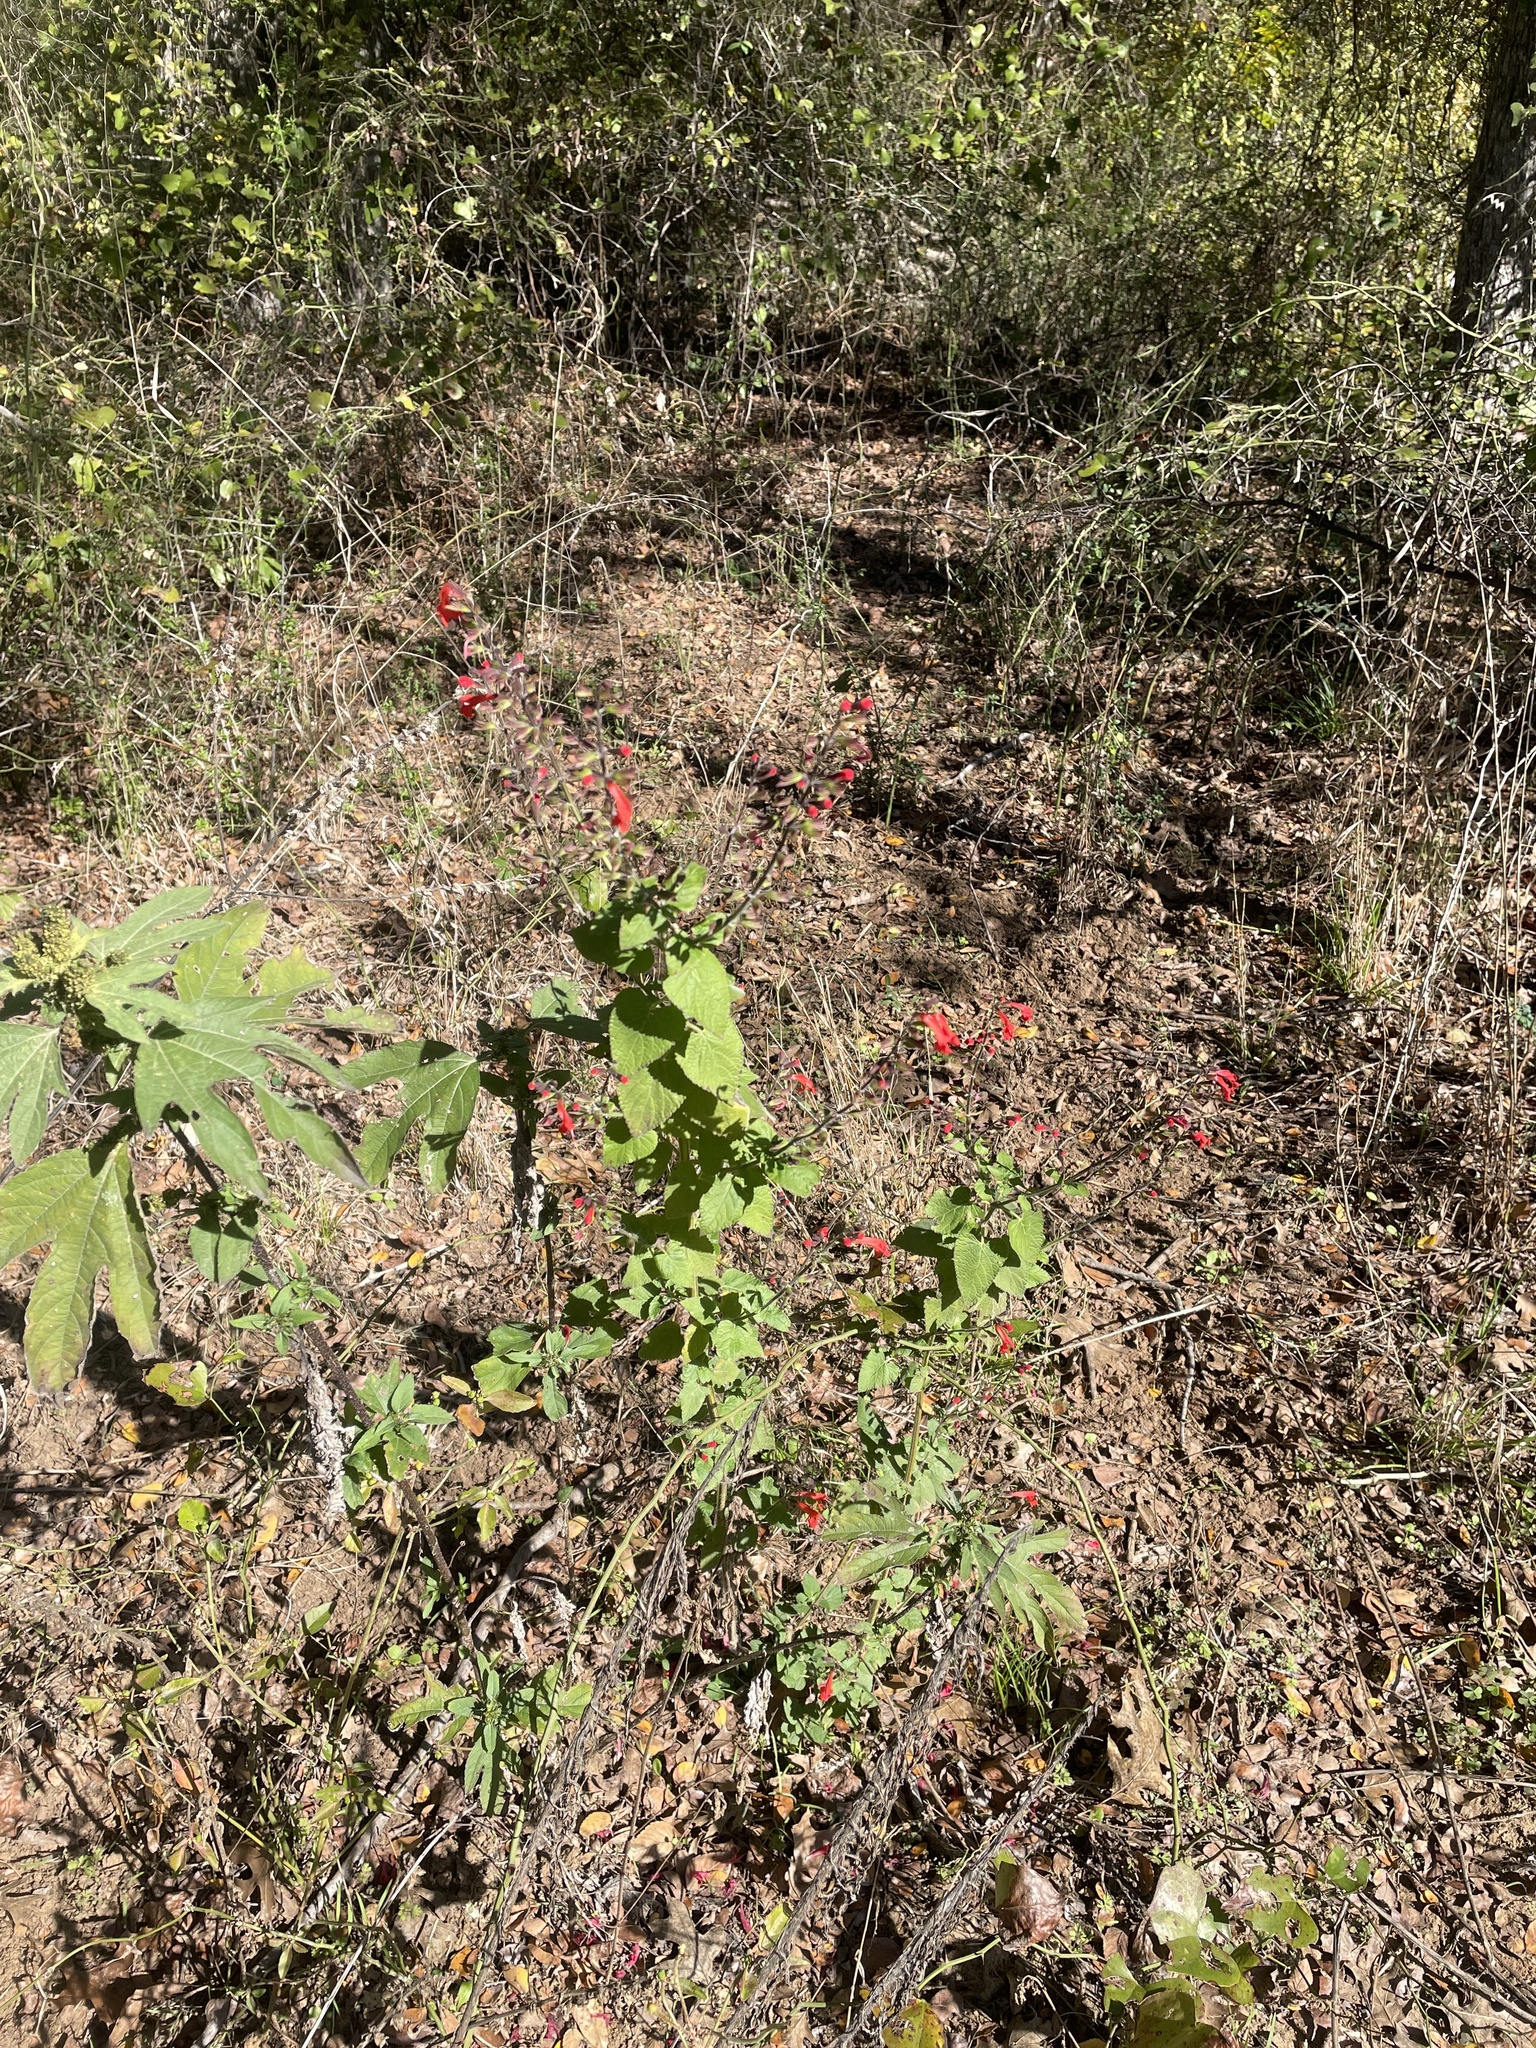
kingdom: Plantae
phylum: Tracheophyta
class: Magnoliopsida
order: Lamiales
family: Lamiaceae
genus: Salvia
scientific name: Salvia coccinea
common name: Blood sage
